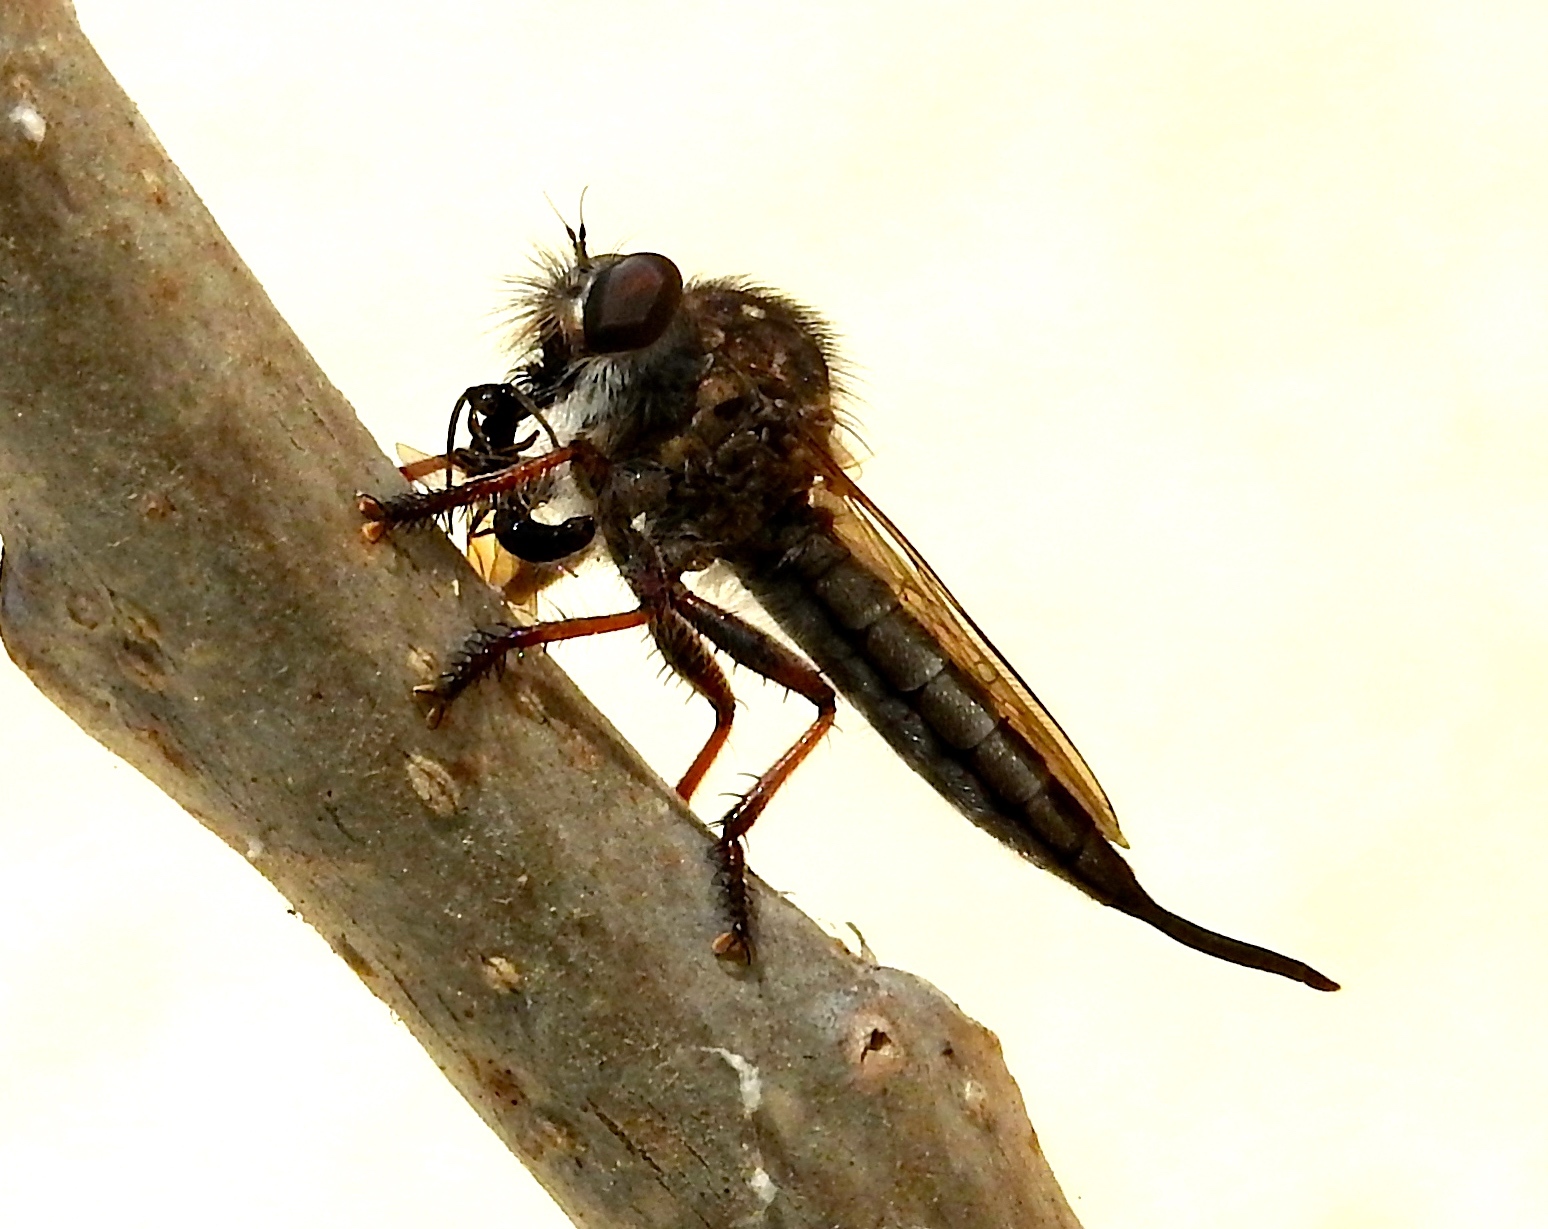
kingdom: Animalia
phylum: Arthropoda
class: Insecta
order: Diptera
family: Asilidae
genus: Efferia
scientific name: Efferia
